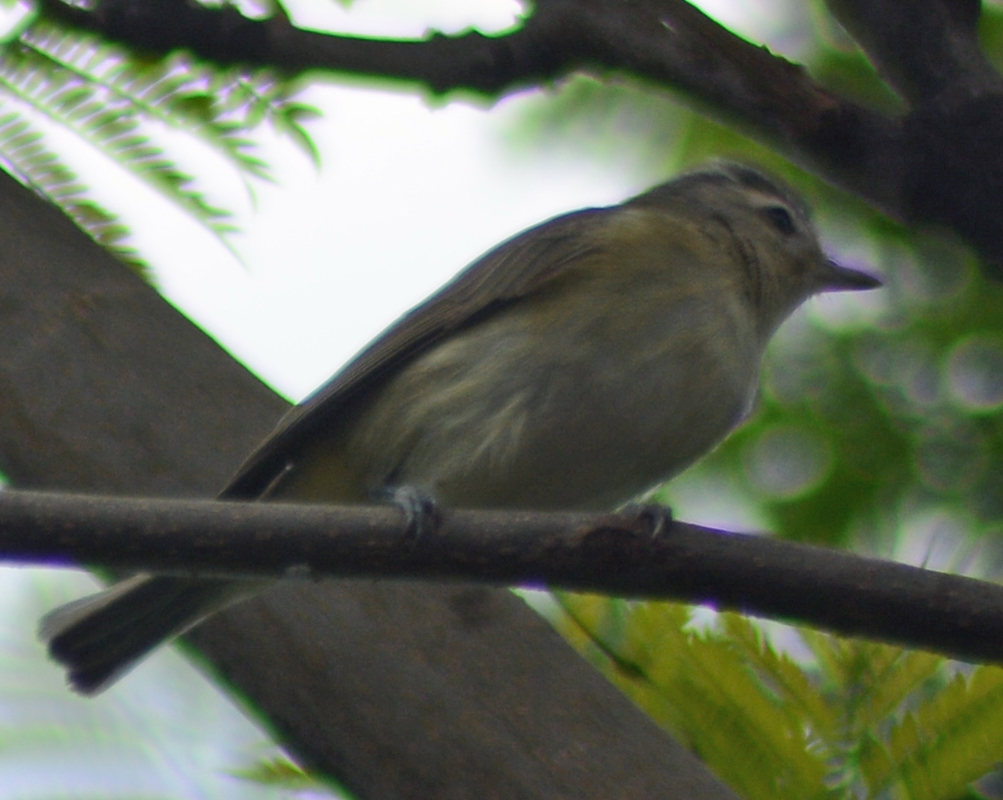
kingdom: Animalia
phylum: Chordata
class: Aves
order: Passeriformes
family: Vireonidae
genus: Vireo
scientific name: Vireo gilvus
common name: Warbling vireo
